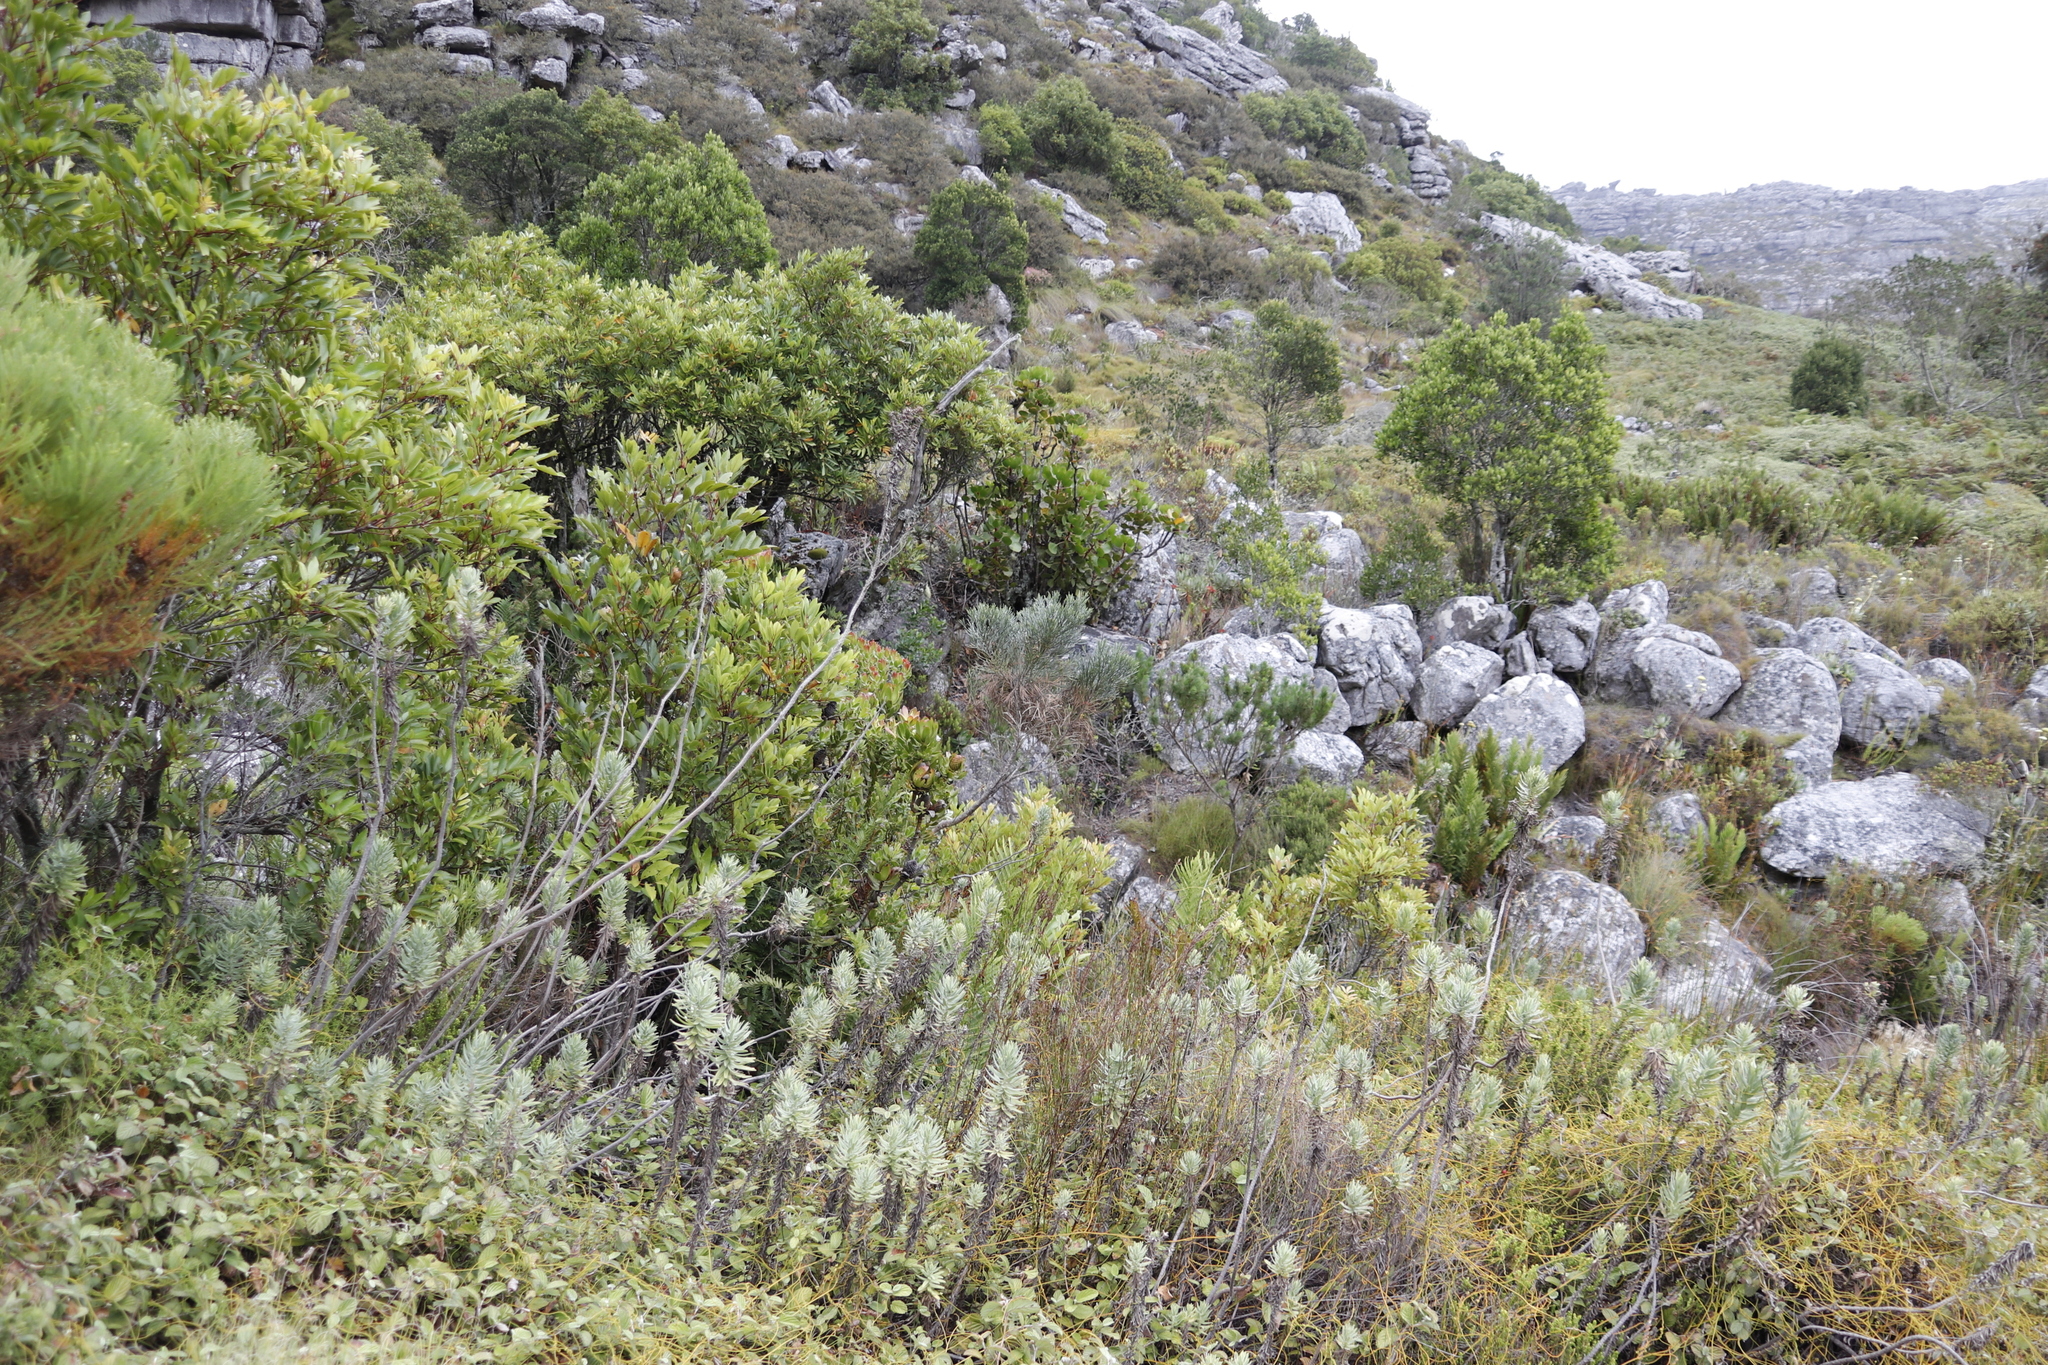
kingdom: Plantae
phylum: Tracheophyta
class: Magnoliopsida
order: Asterales
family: Asteraceae
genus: Osmitopsis
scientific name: Osmitopsis asteriscoides
